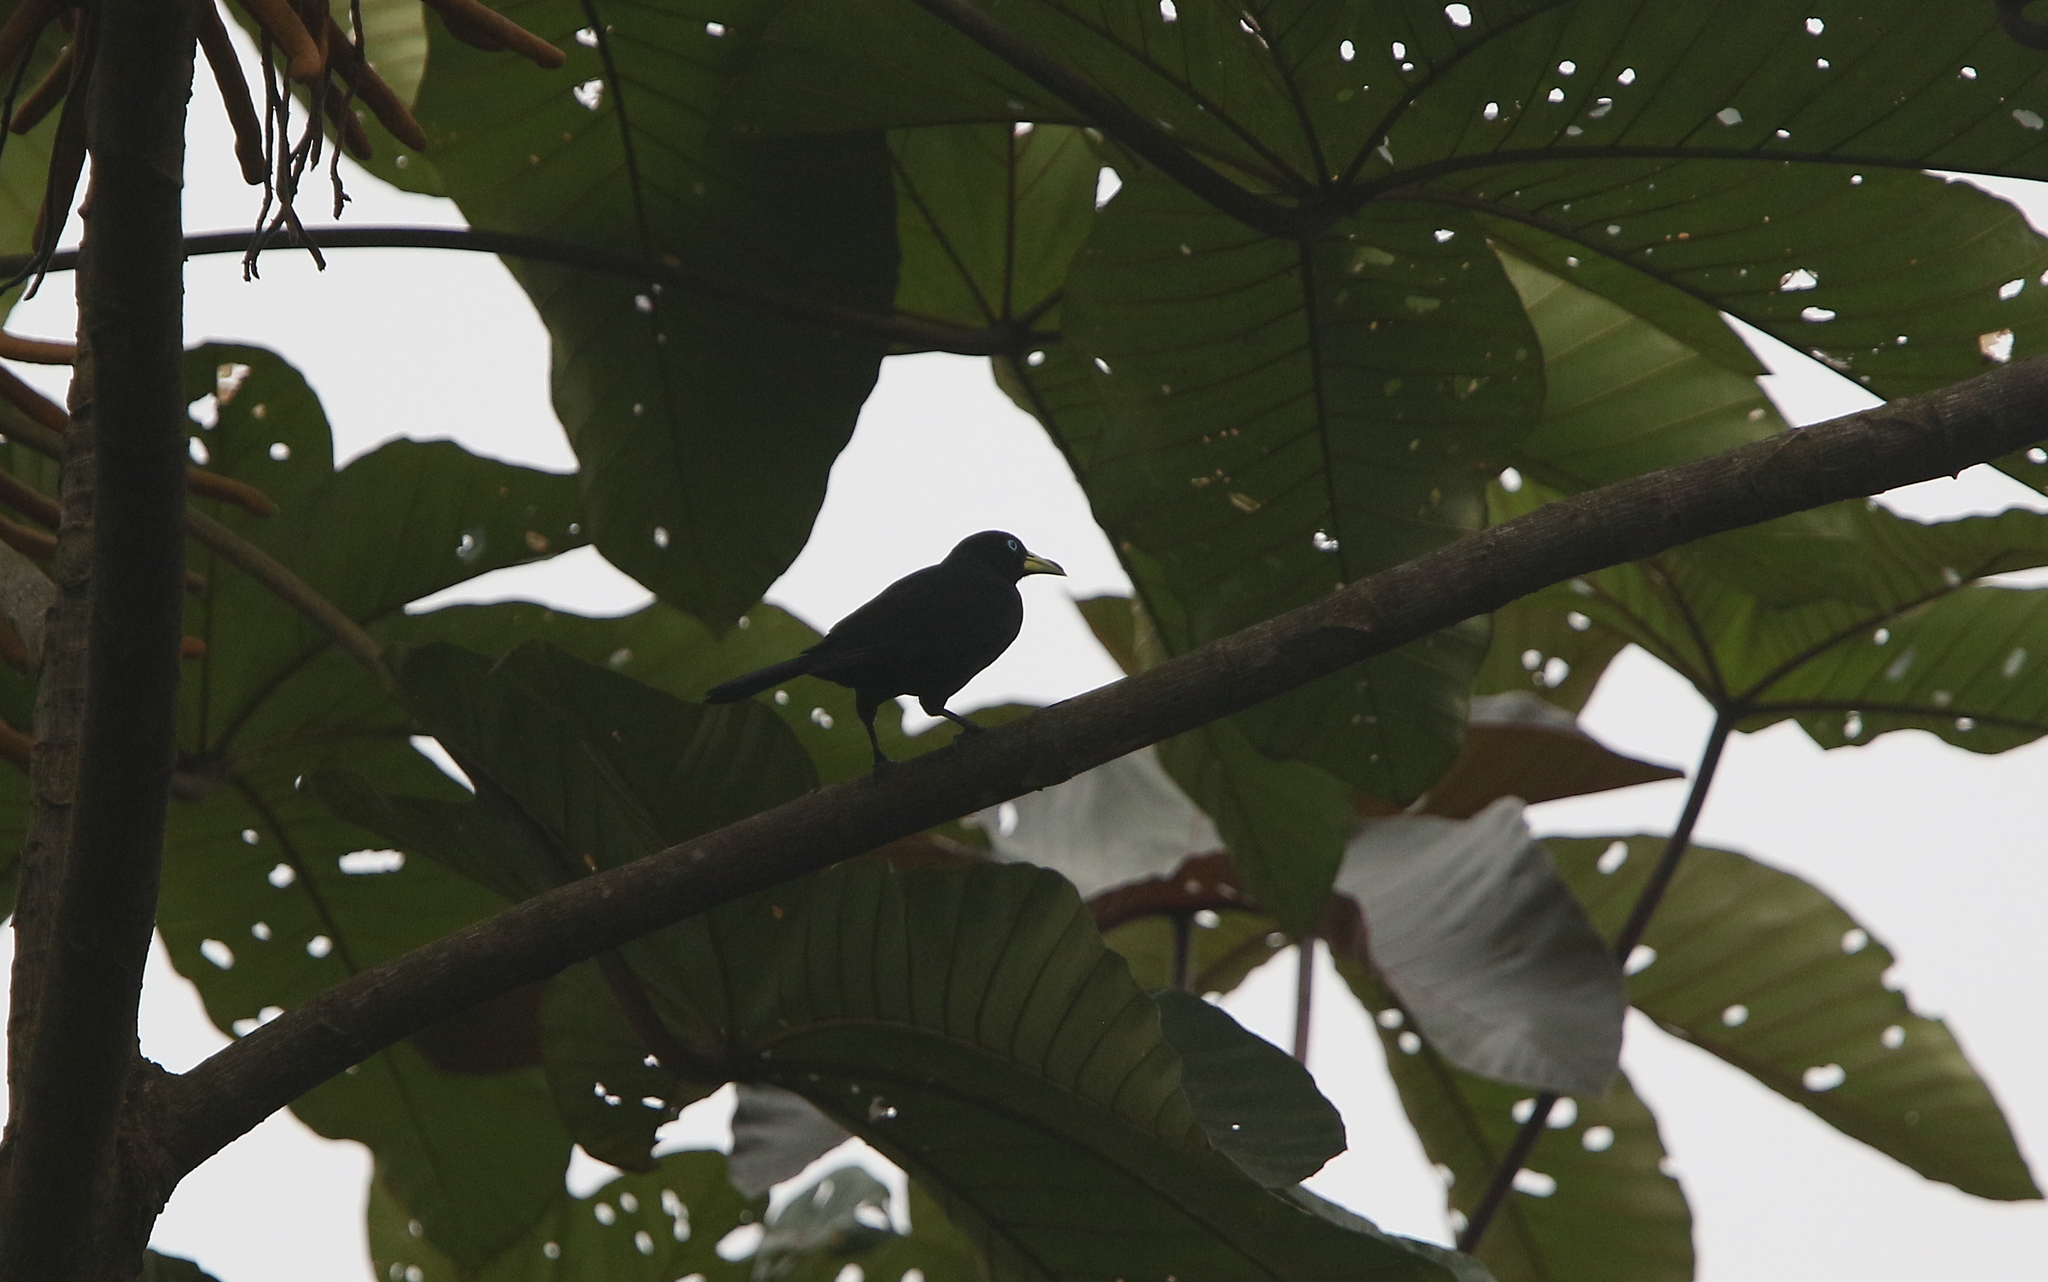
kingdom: Animalia
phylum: Chordata
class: Aves
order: Passeriformes
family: Icteridae
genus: Cacicus
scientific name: Cacicus uropygialis
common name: Scarlet-rumped cacique
